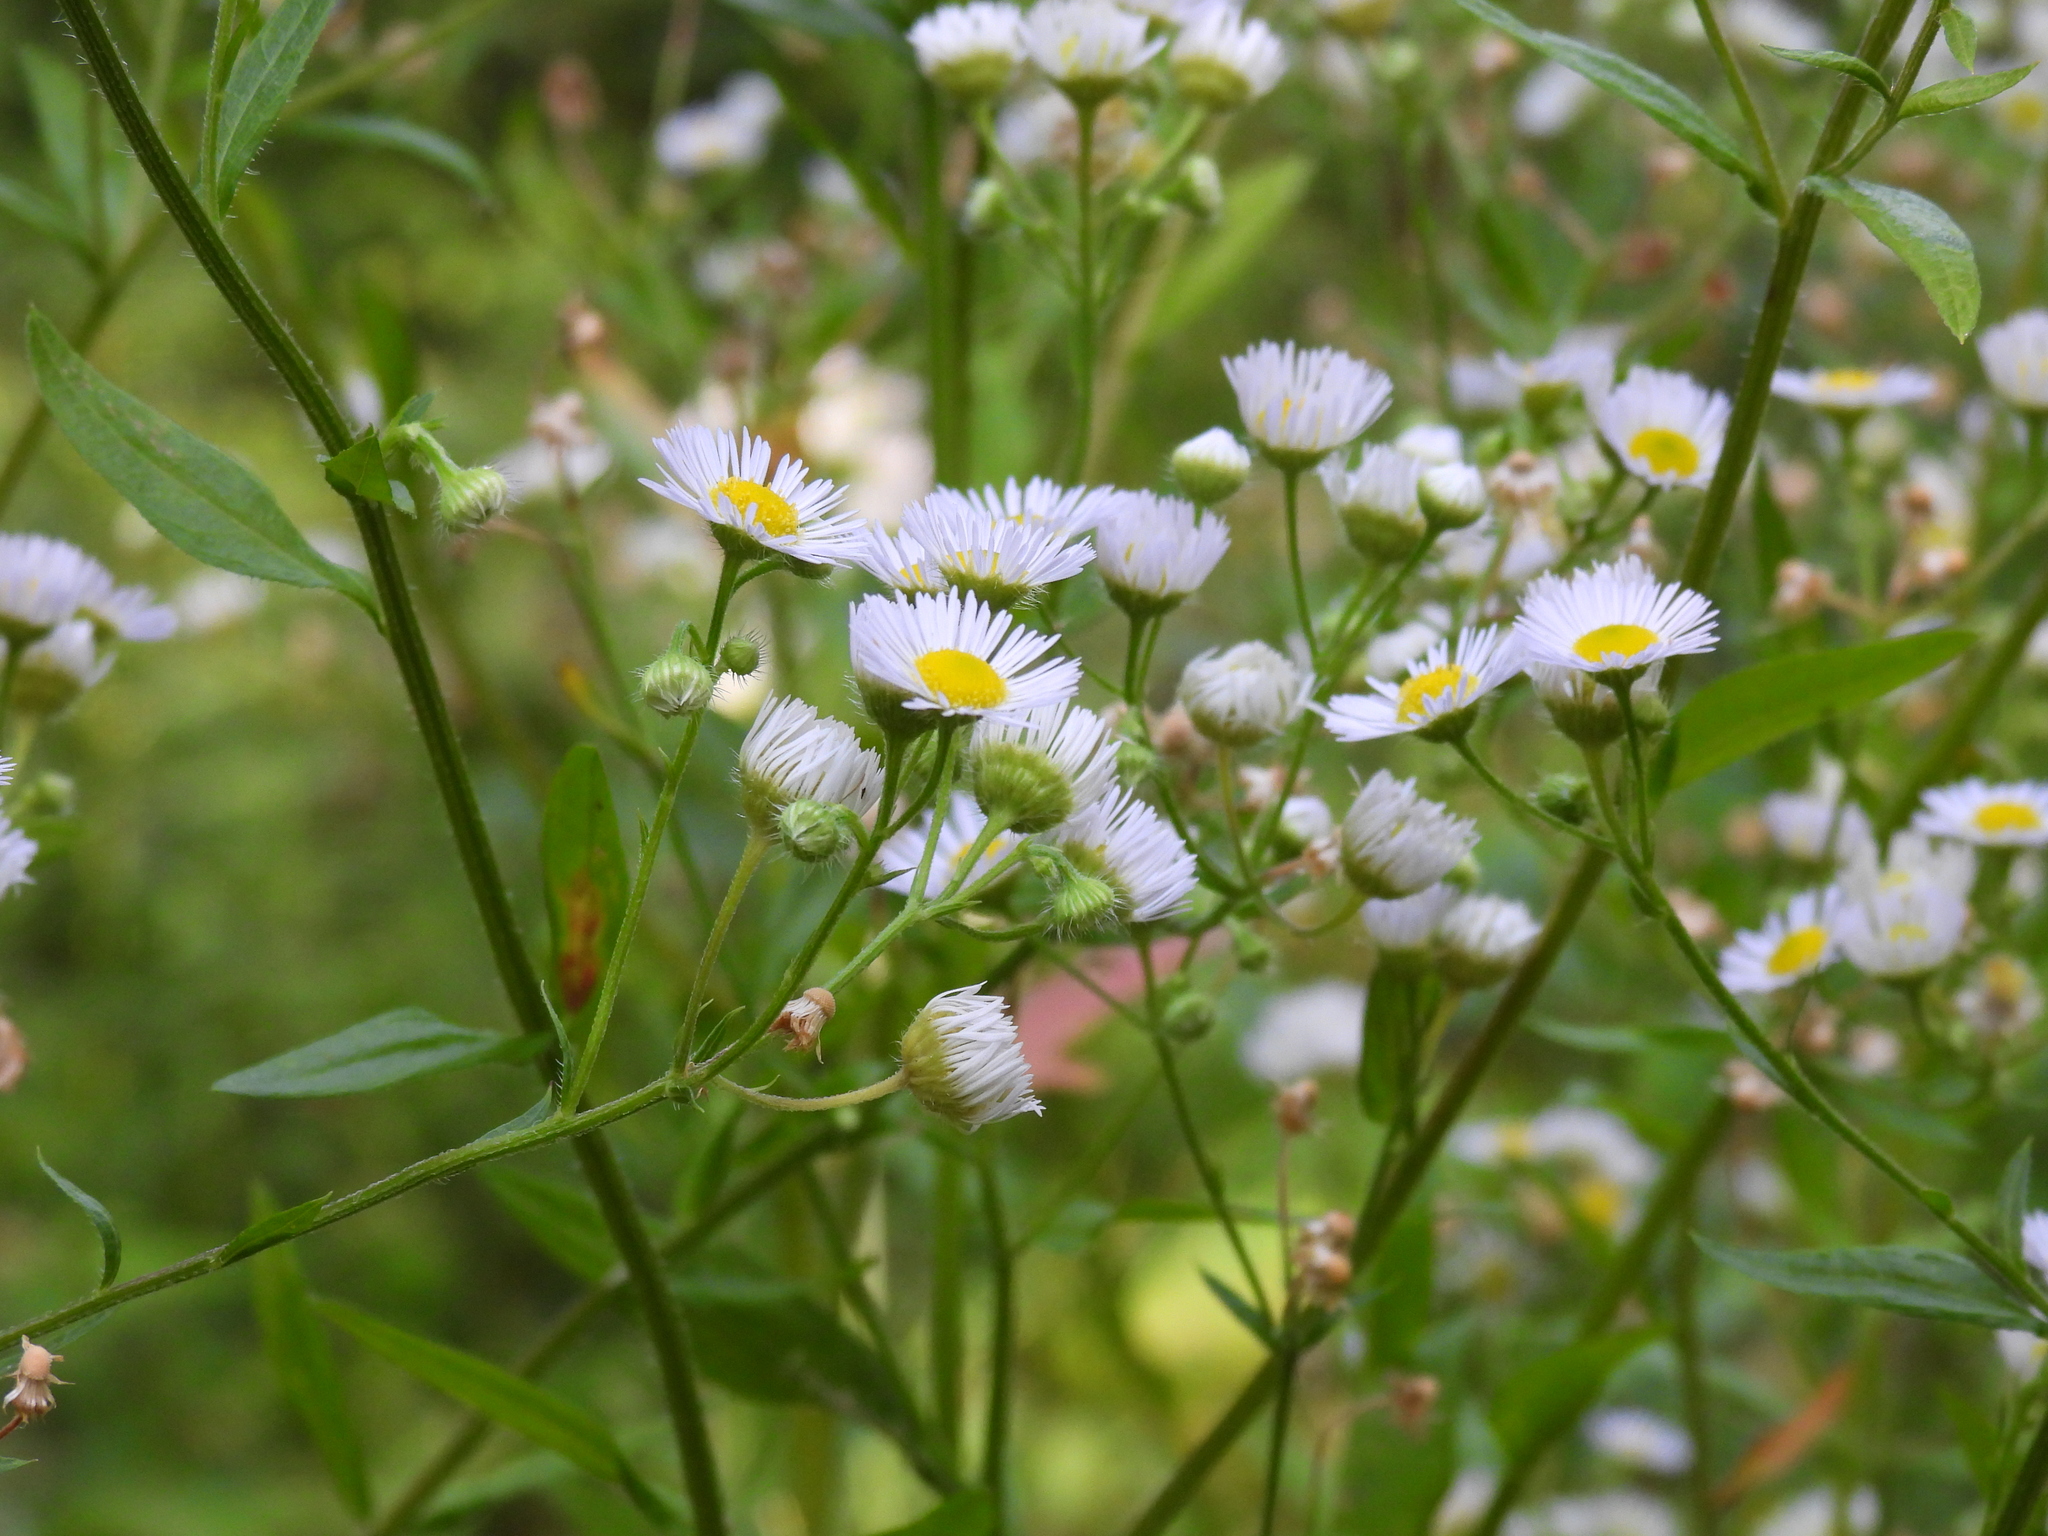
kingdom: Plantae
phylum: Tracheophyta
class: Magnoliopsida
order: Asterales
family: Asteraceae
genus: Erigeron
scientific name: Erigeron annuus
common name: Tall fleabane
